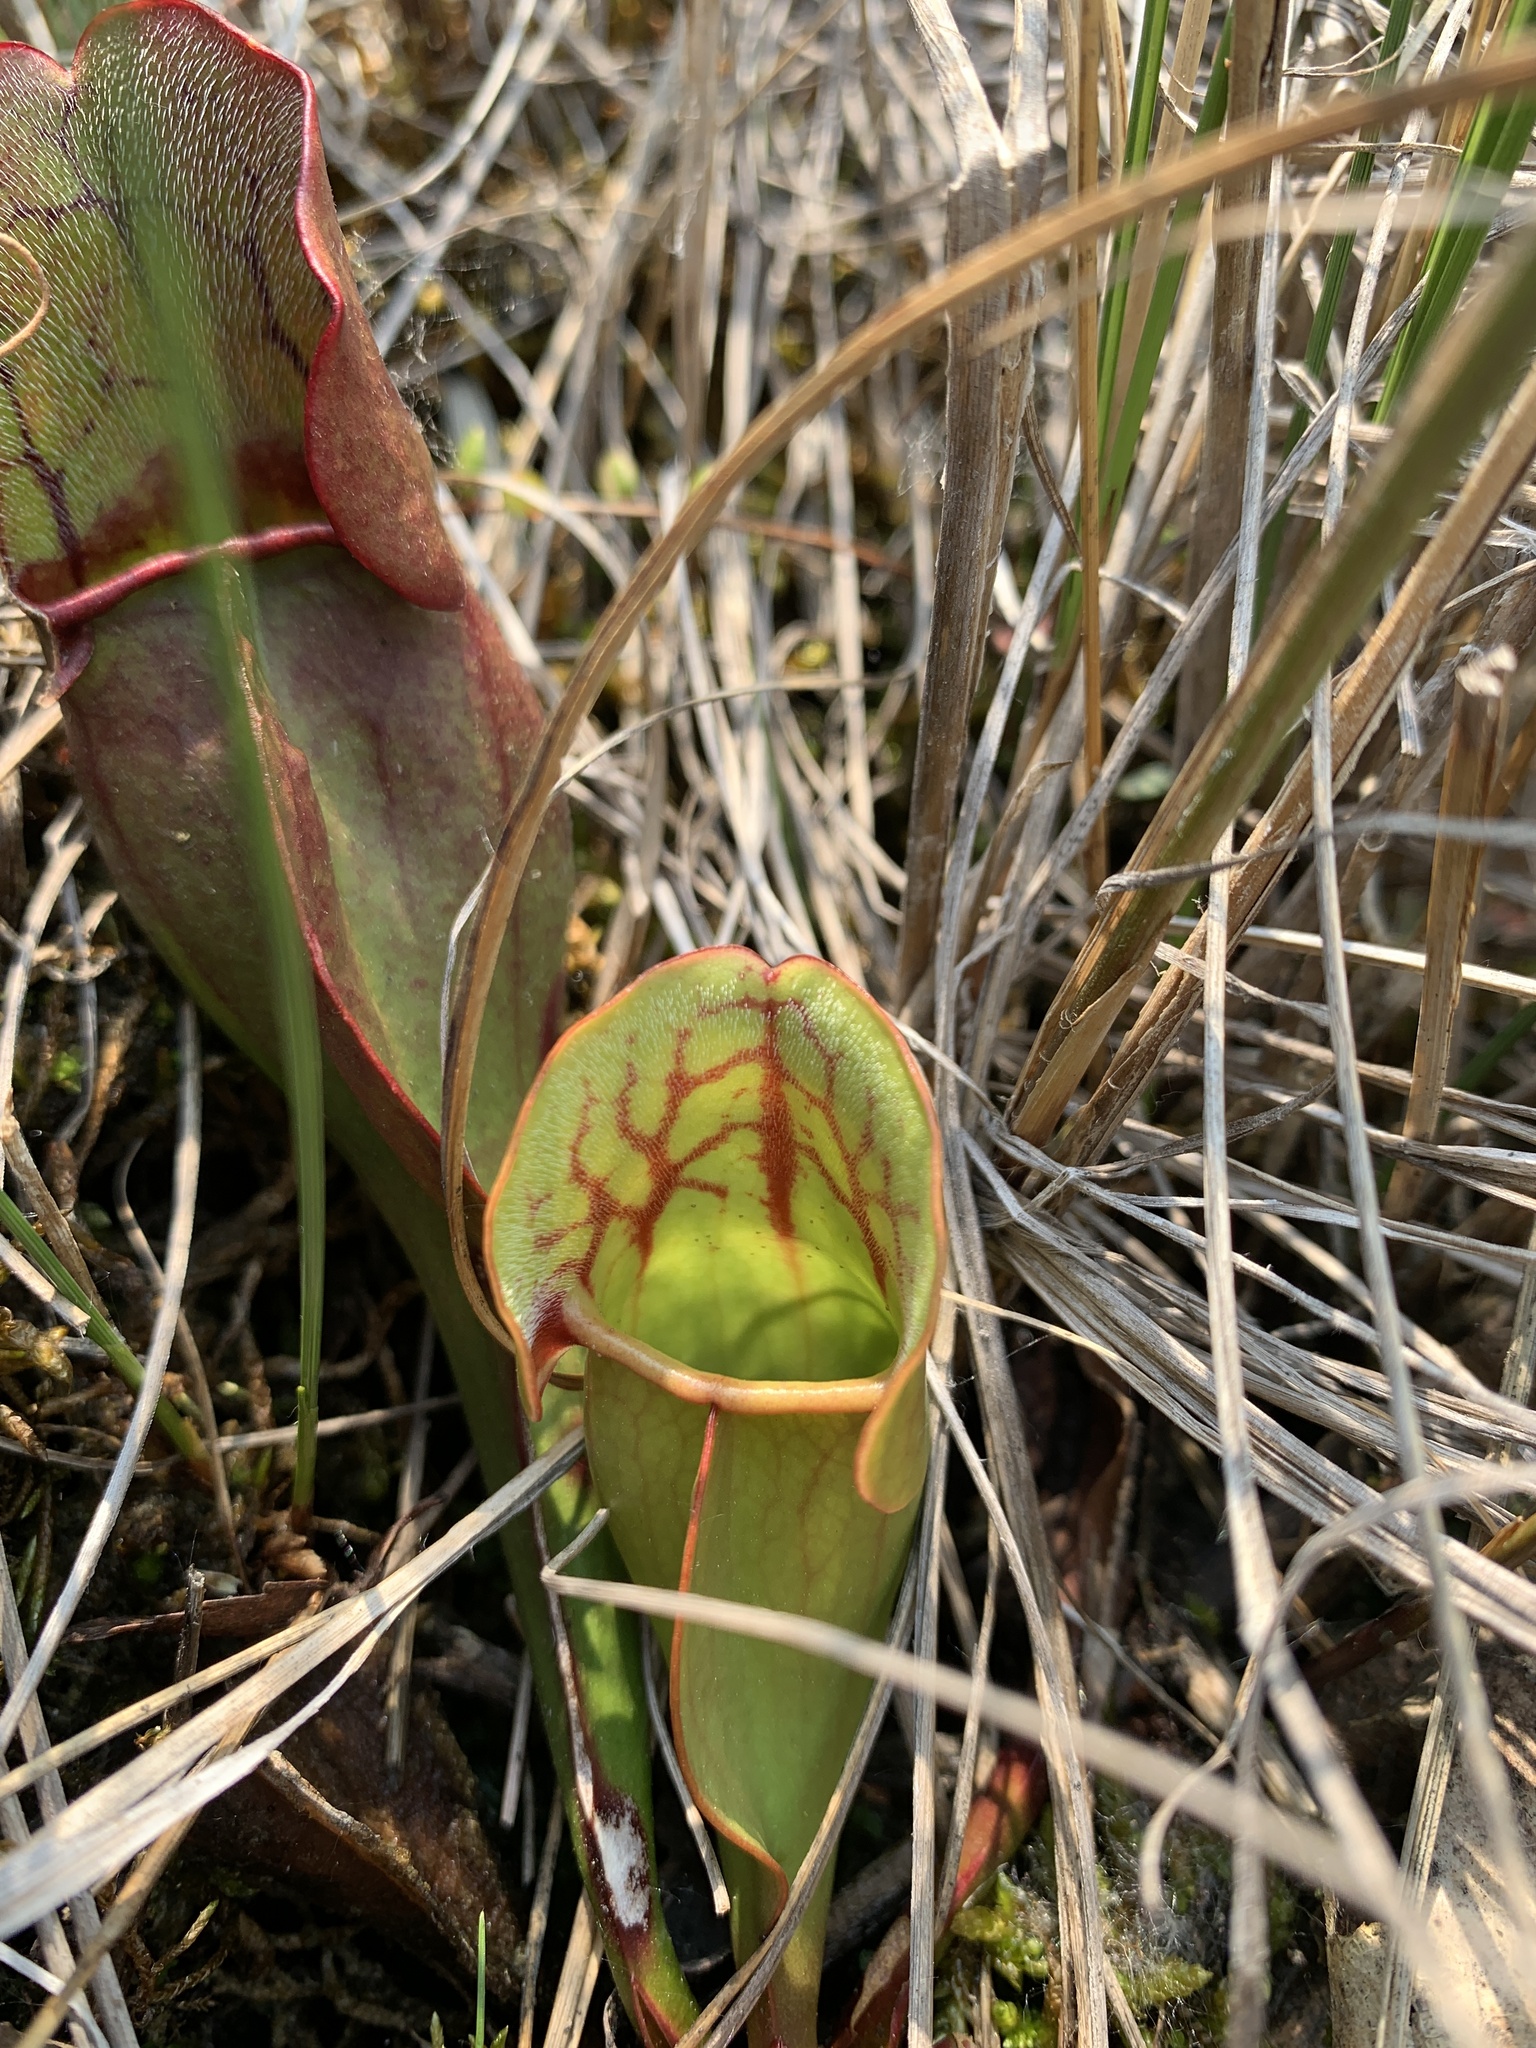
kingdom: Plantae
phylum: Tracheophyta
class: Magnoliopsida
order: Ericales
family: Sarraceniaceae
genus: Sarracenia
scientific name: Sarracenia purpurea
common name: Pitcherplant
